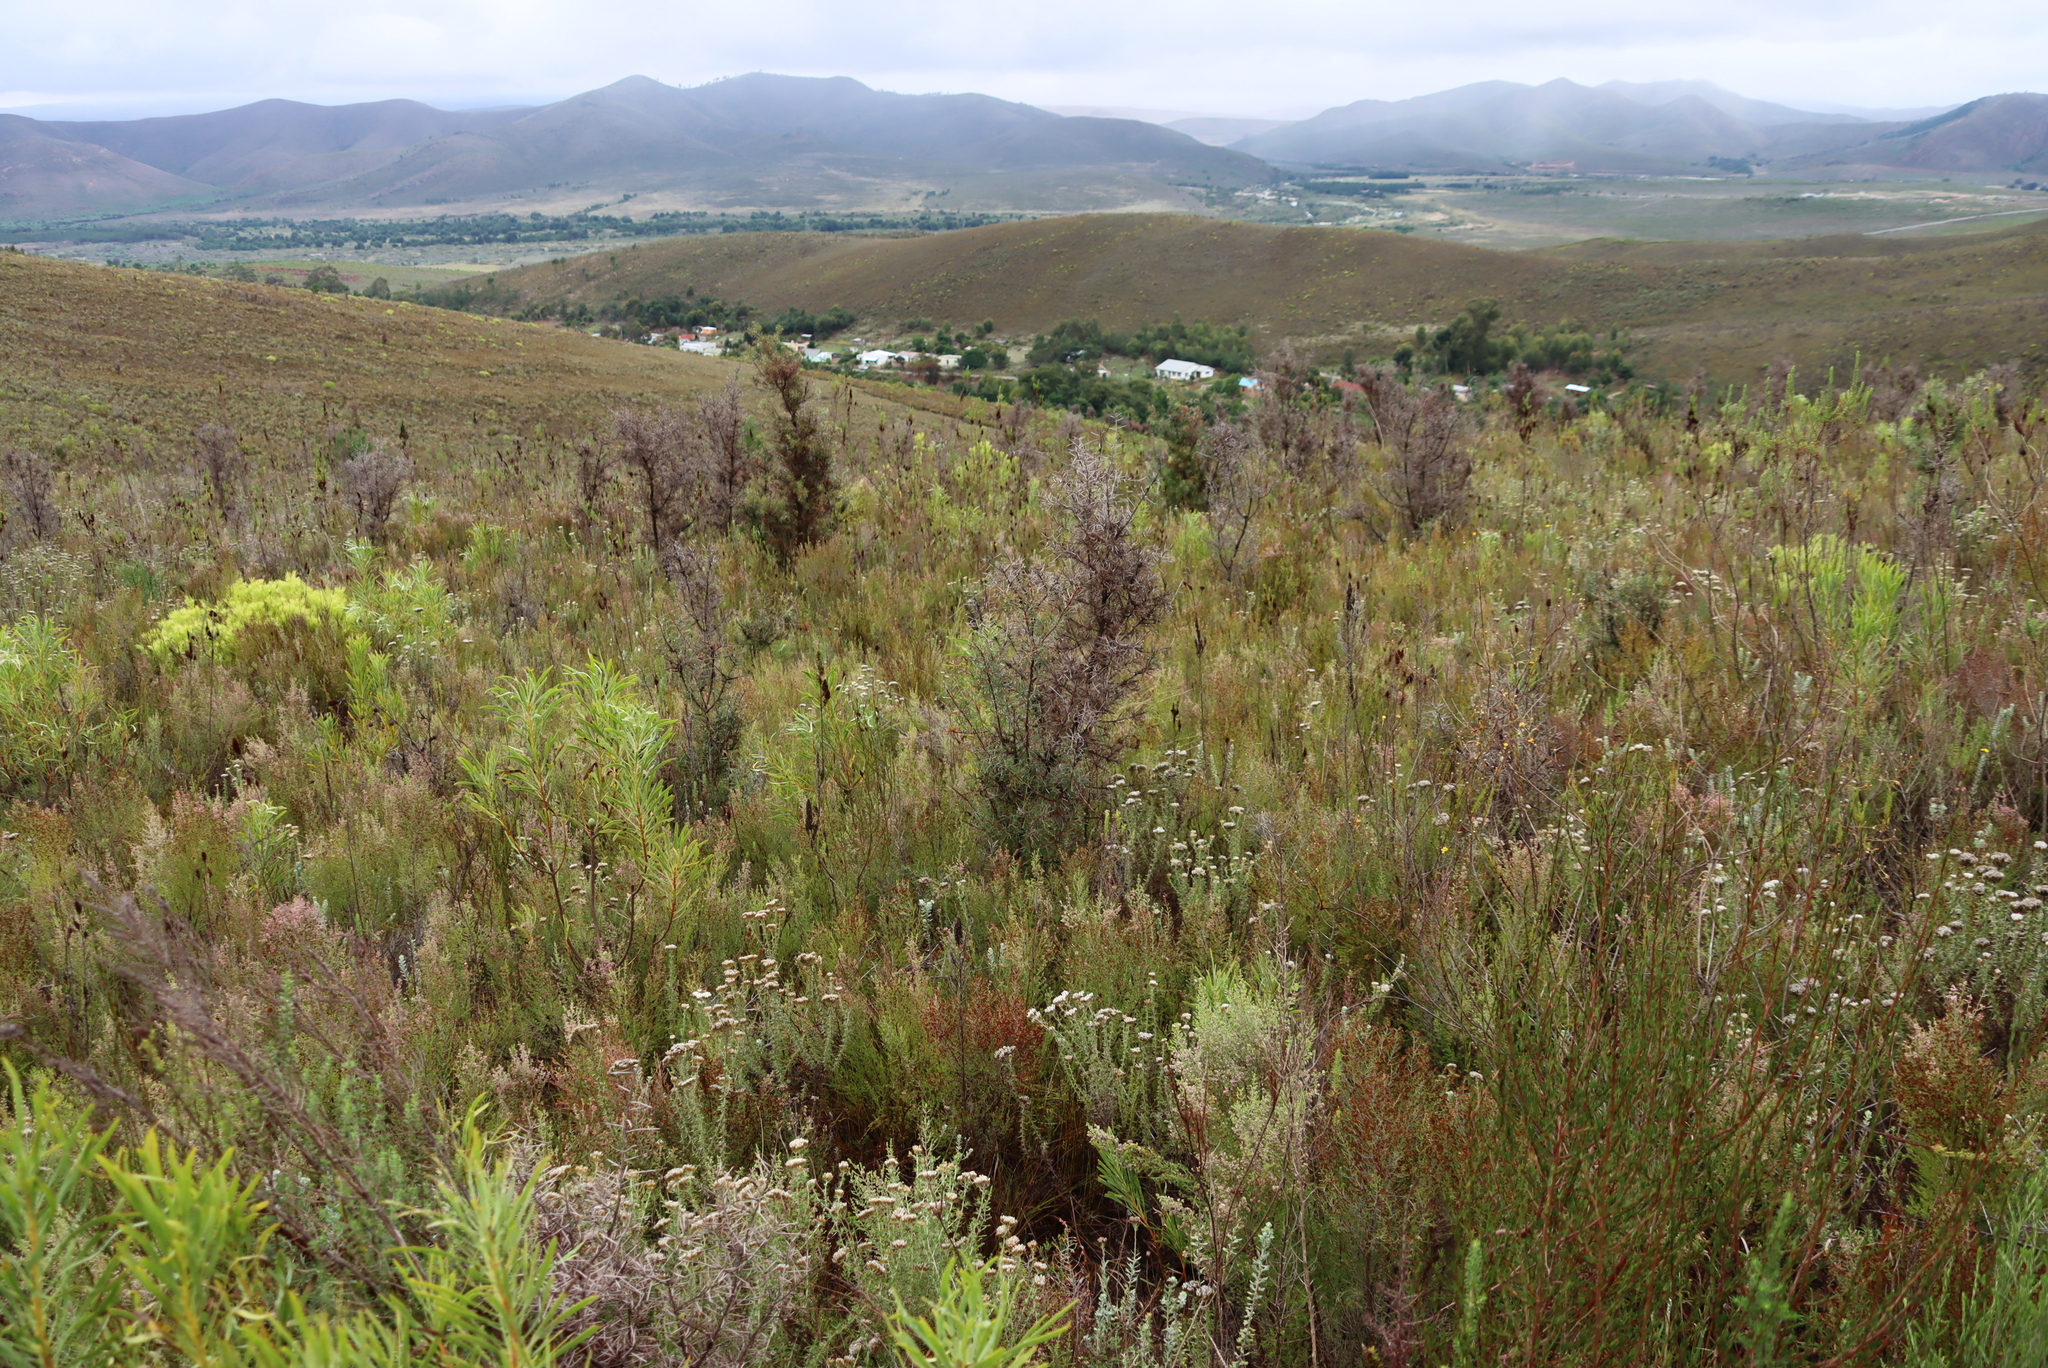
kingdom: Plantae
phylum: Tracheophyta
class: Magnoliopsida
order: Proteales
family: Proteaceae
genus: Hakea
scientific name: Hakea sericea
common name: Needle bush
